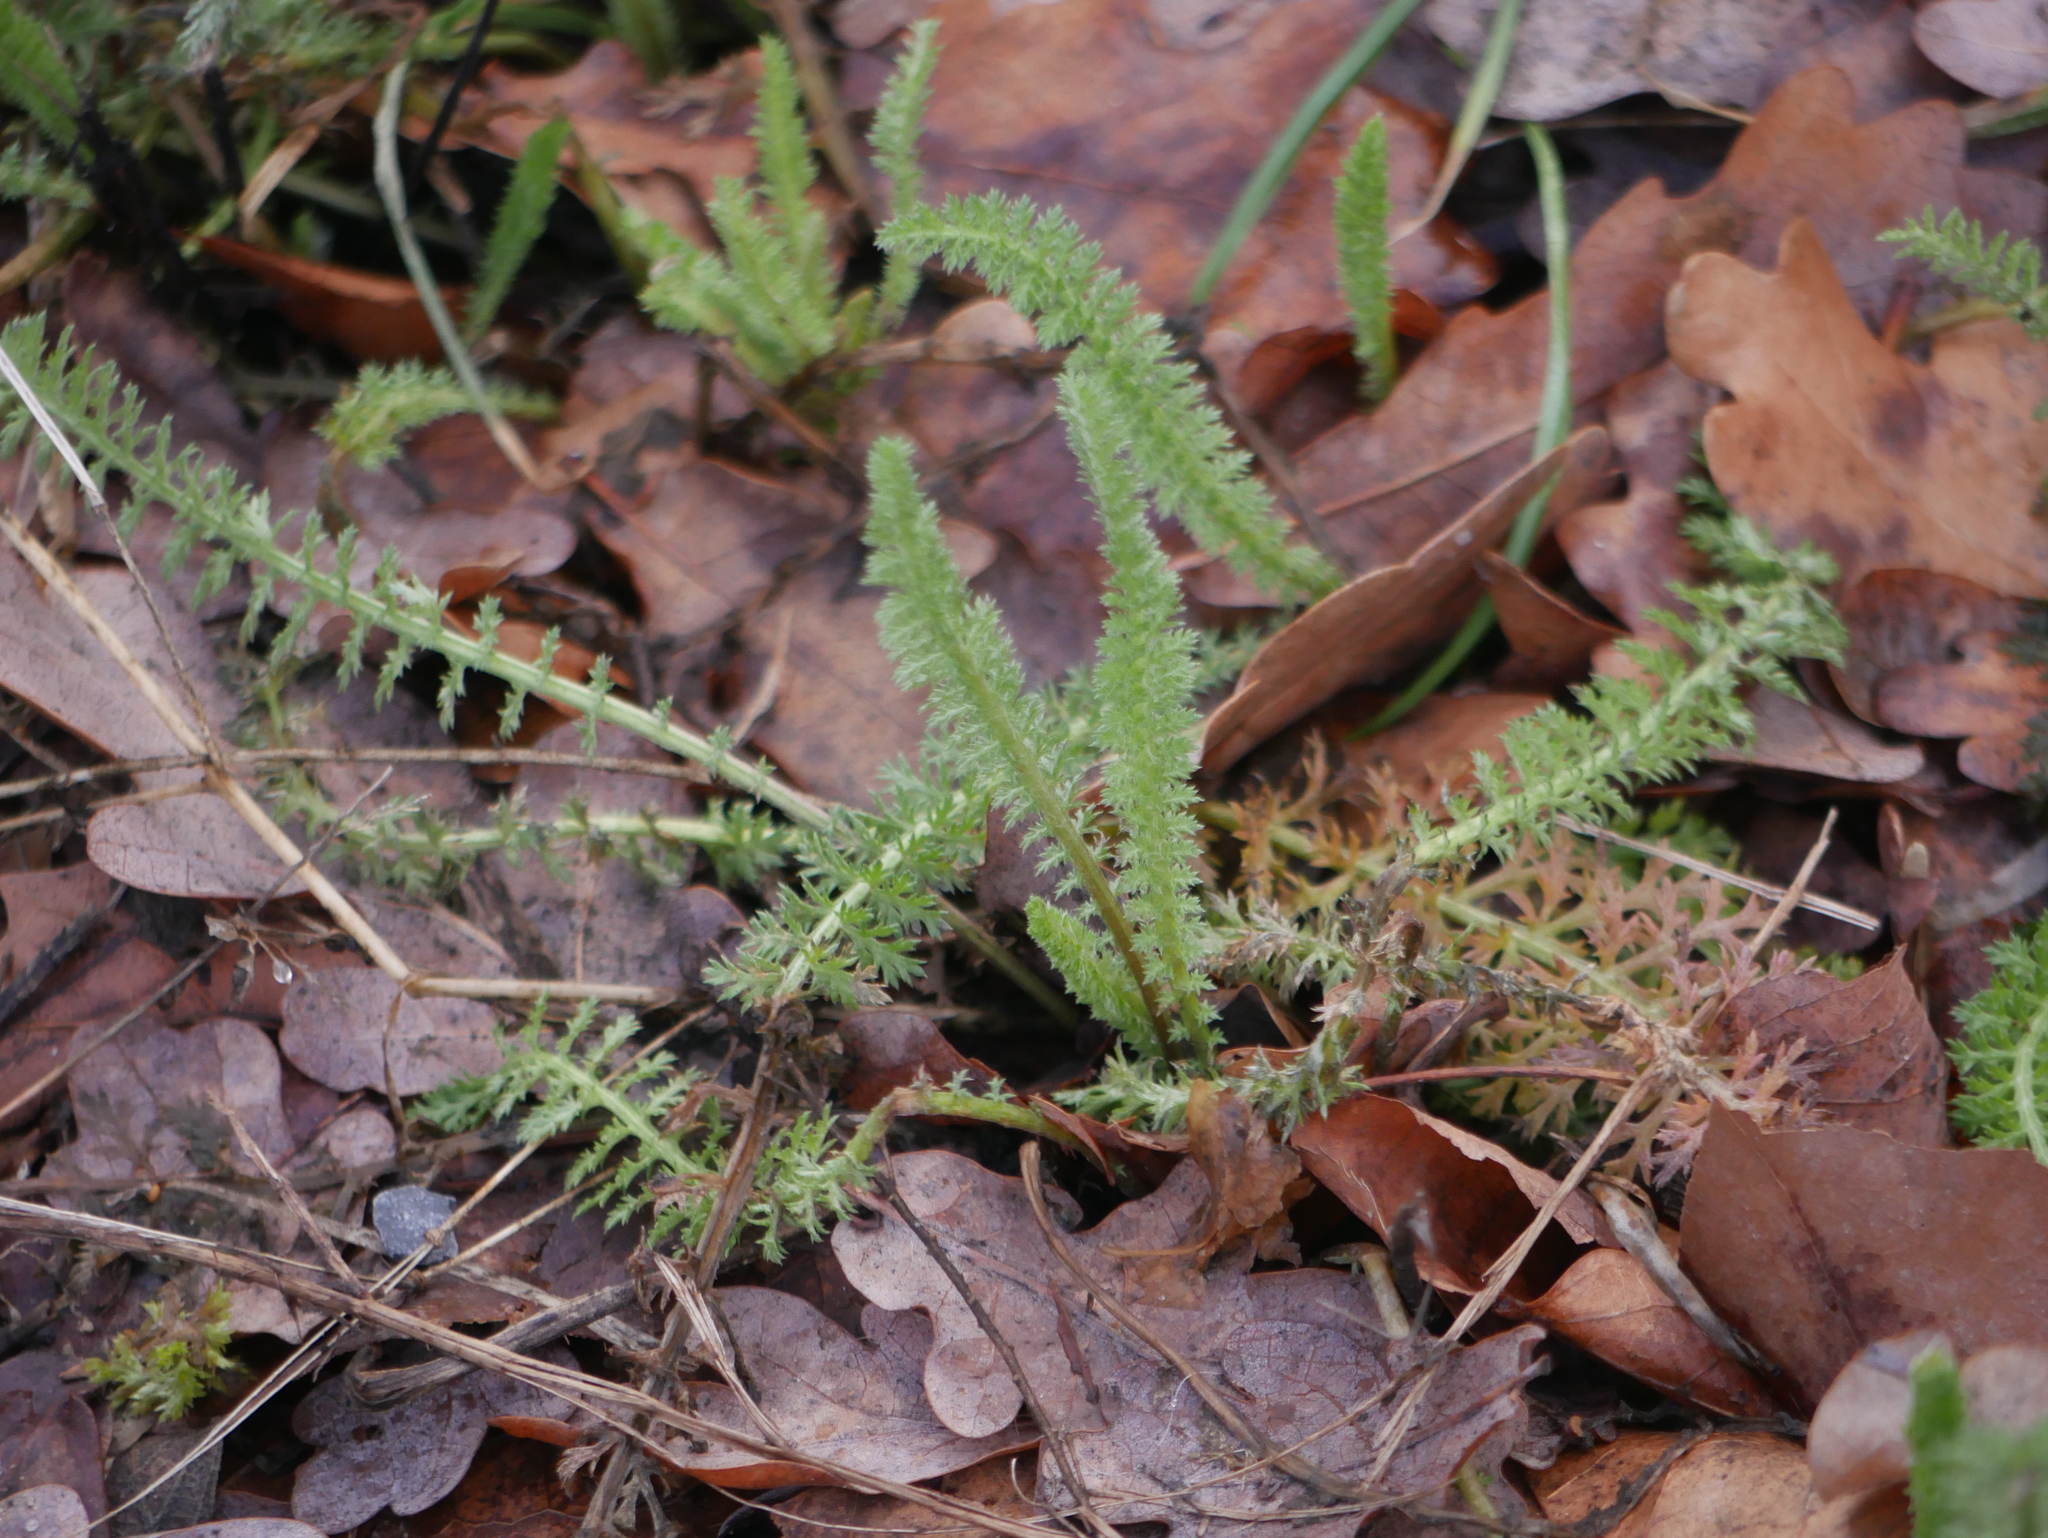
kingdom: Plantae
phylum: Tracheophyta
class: Magnoliopsida
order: Asterales
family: Asteraceae
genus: Achillea
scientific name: Achillea millefolium
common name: Yarrow
